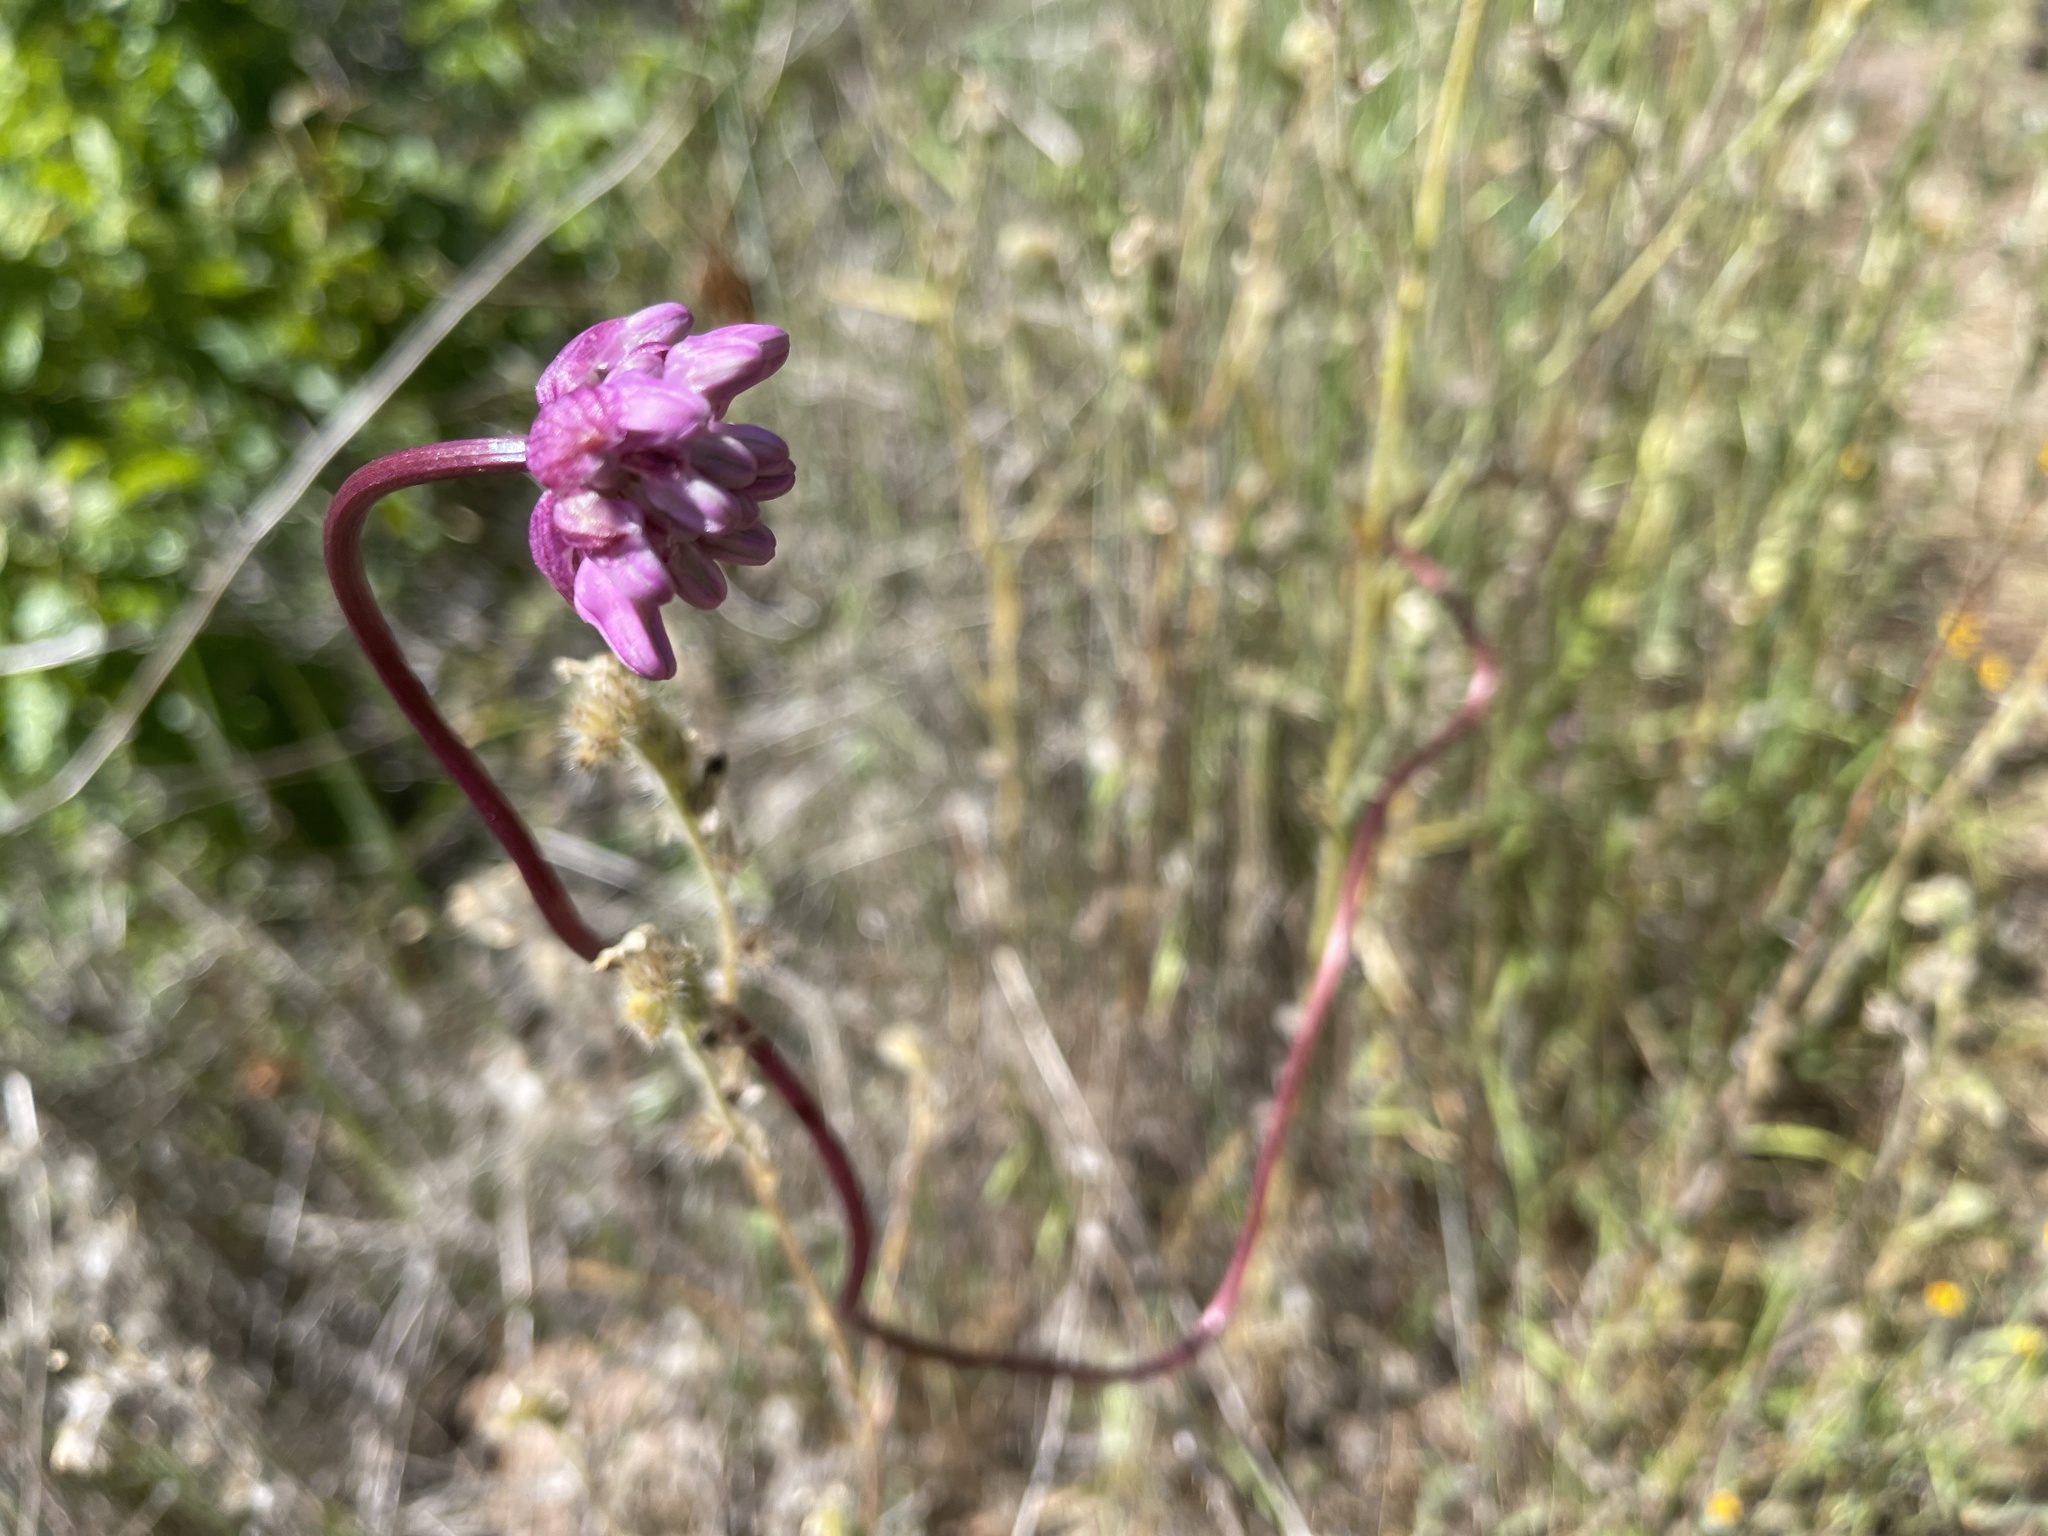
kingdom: Plantae
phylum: Tracheophyta
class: Liliopsida
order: Asparagales
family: Asparagaceae
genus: Dichelostemma
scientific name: Dichelostemma volubile
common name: Trining brodiaea
